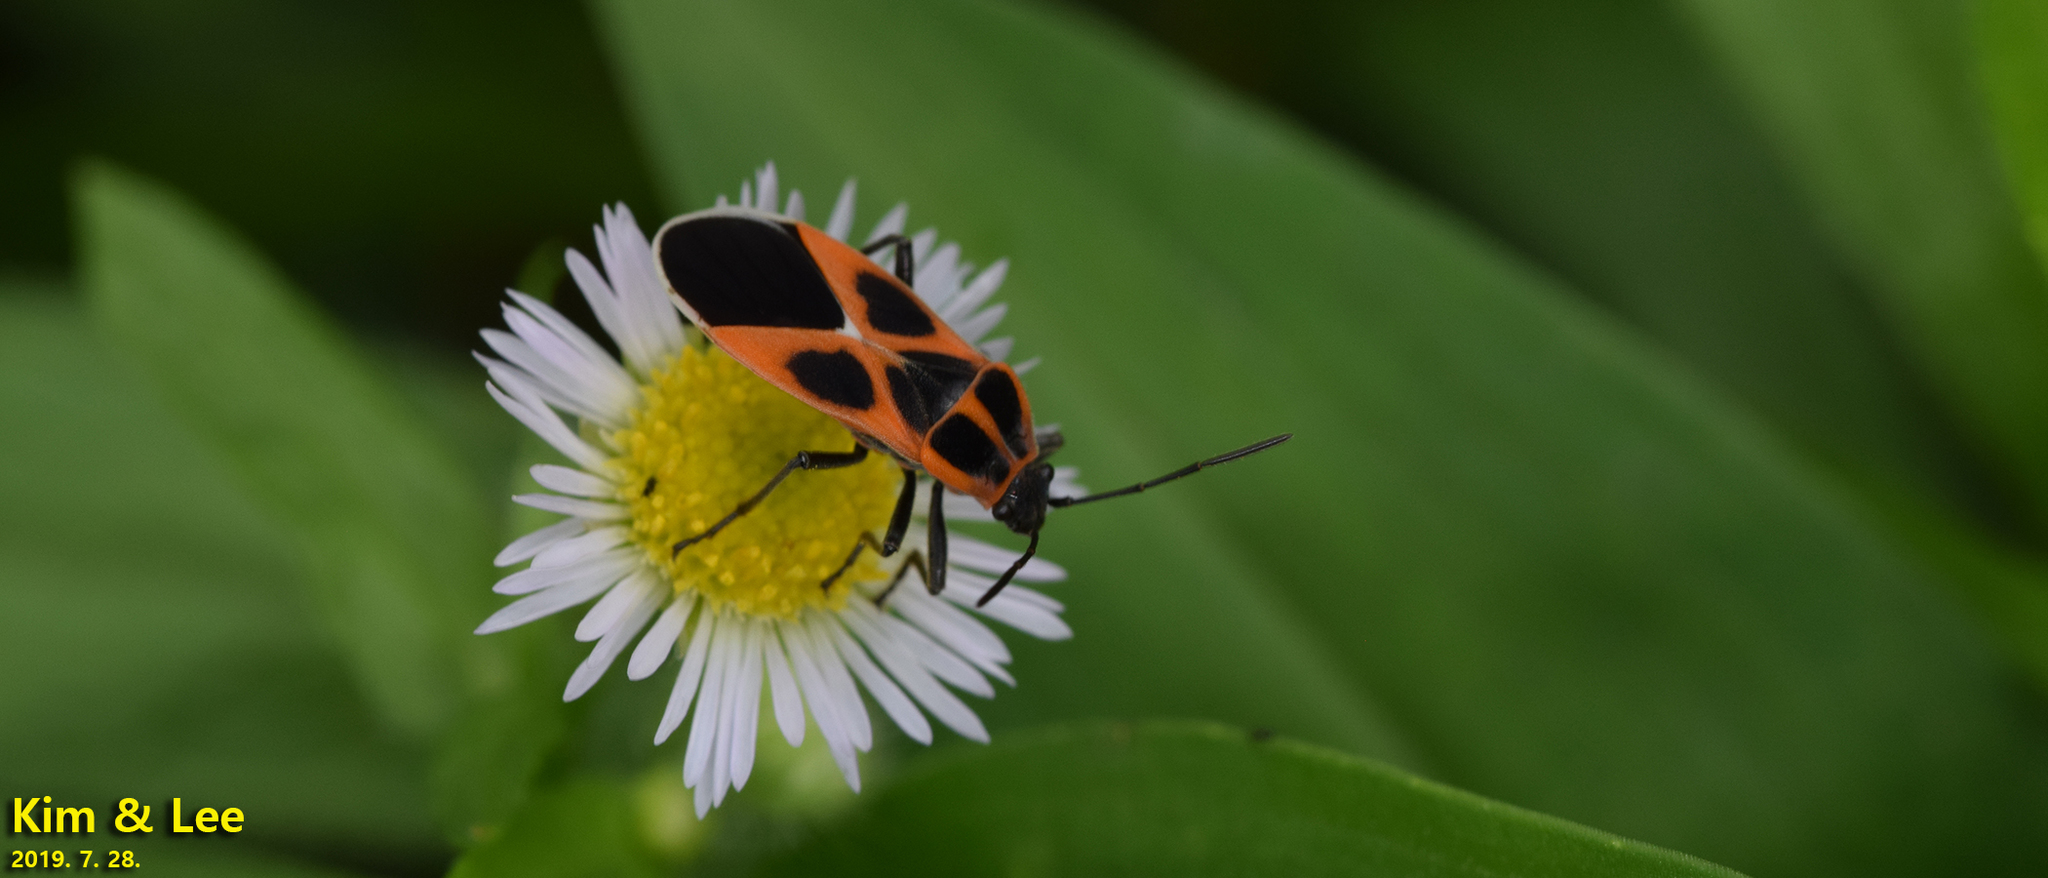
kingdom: Animalia
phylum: Arthropoda
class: Insecta
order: Hemiptera
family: Lygaeidae
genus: Tropidothorax
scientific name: Tropidothorax cruciger
